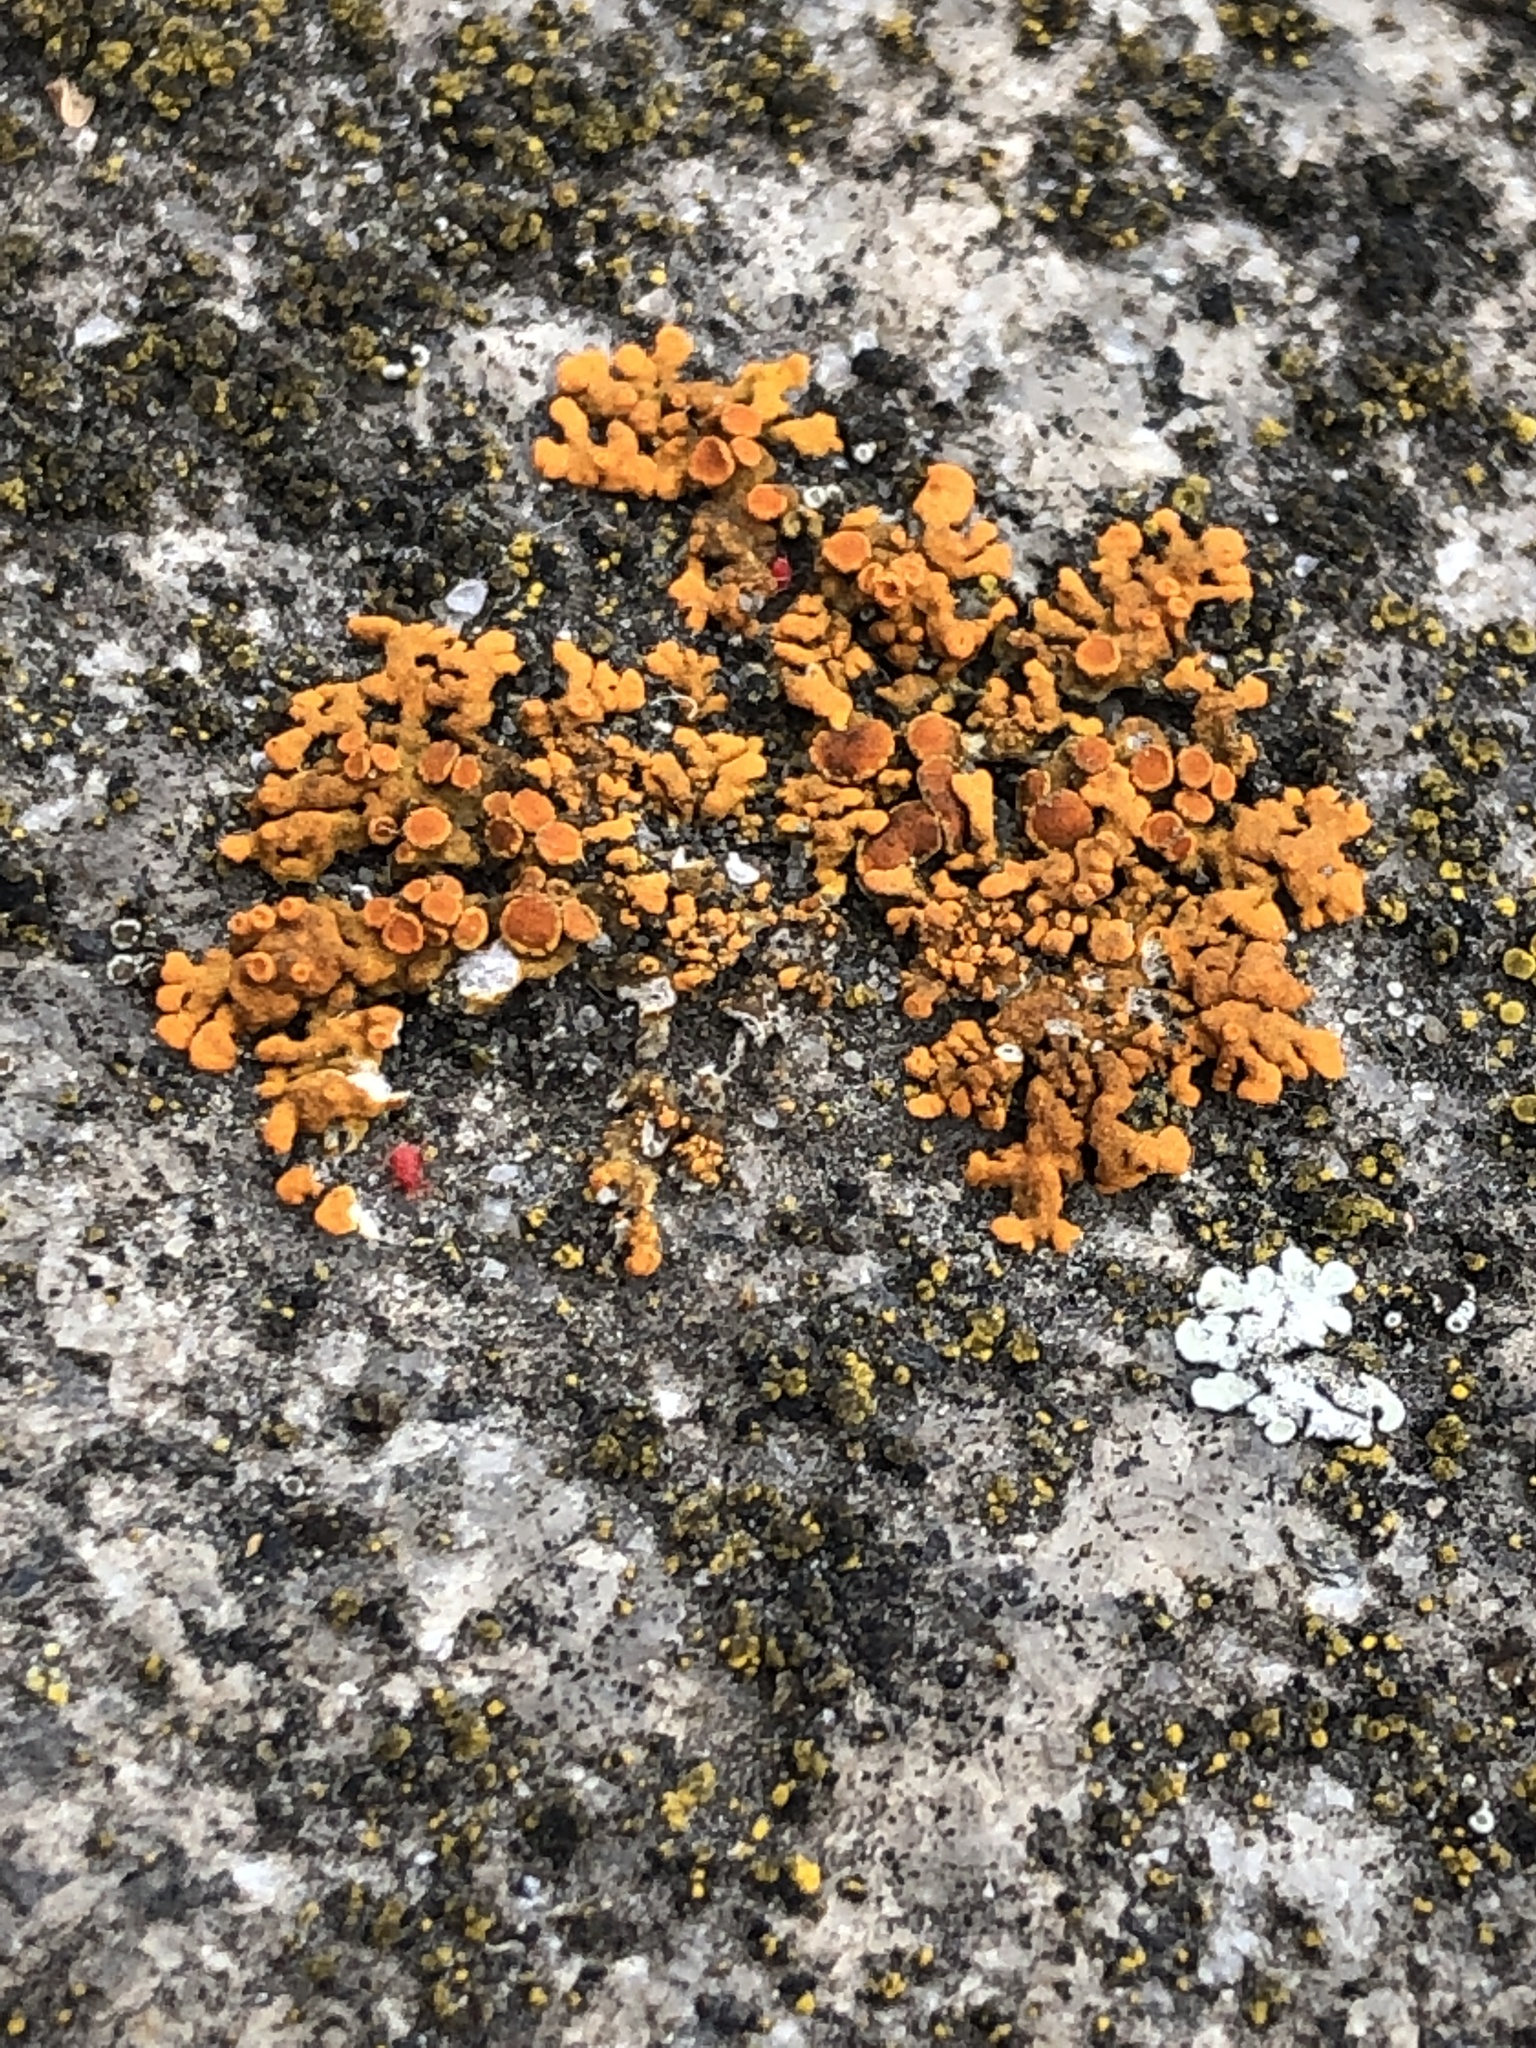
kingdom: Fungi
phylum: Ascomycota
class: Lecanoromycetes
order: Teloschistales
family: Teloschistaceae
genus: Xanthoria
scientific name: Xanthoria elegans
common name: Elegant sunburst lichen
